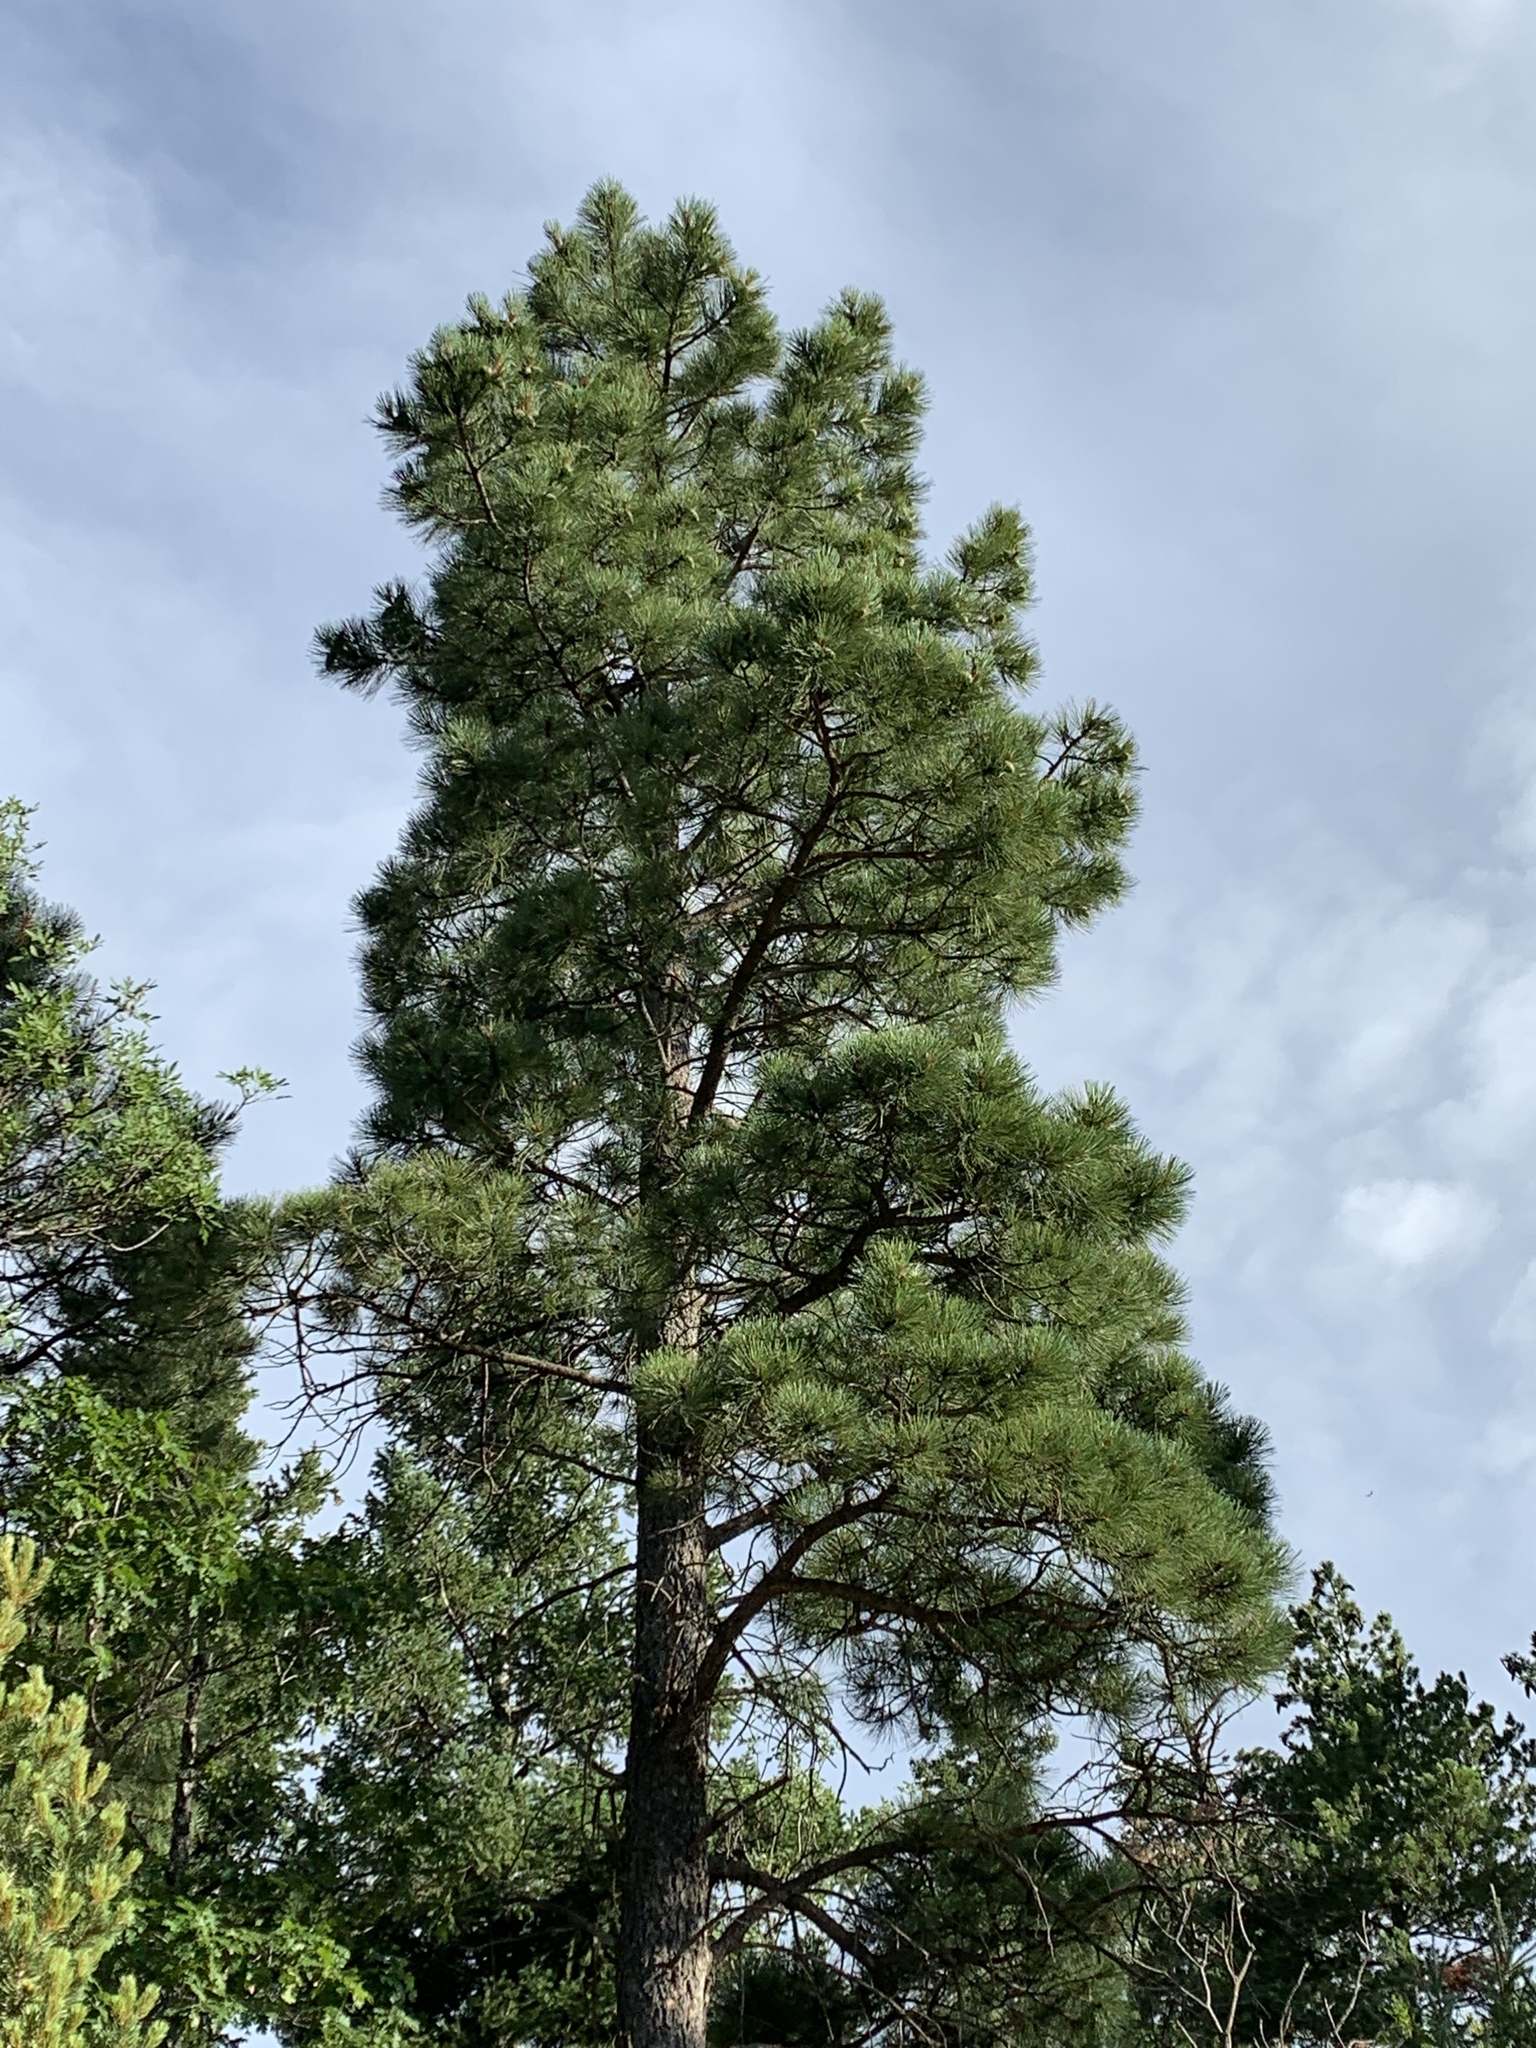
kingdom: Plantae
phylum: Tracheophyta
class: Pinopsida
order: Pinales
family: Pinaceae
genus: Pinus
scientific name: Pinus ponderosa
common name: Western yellow-pine
